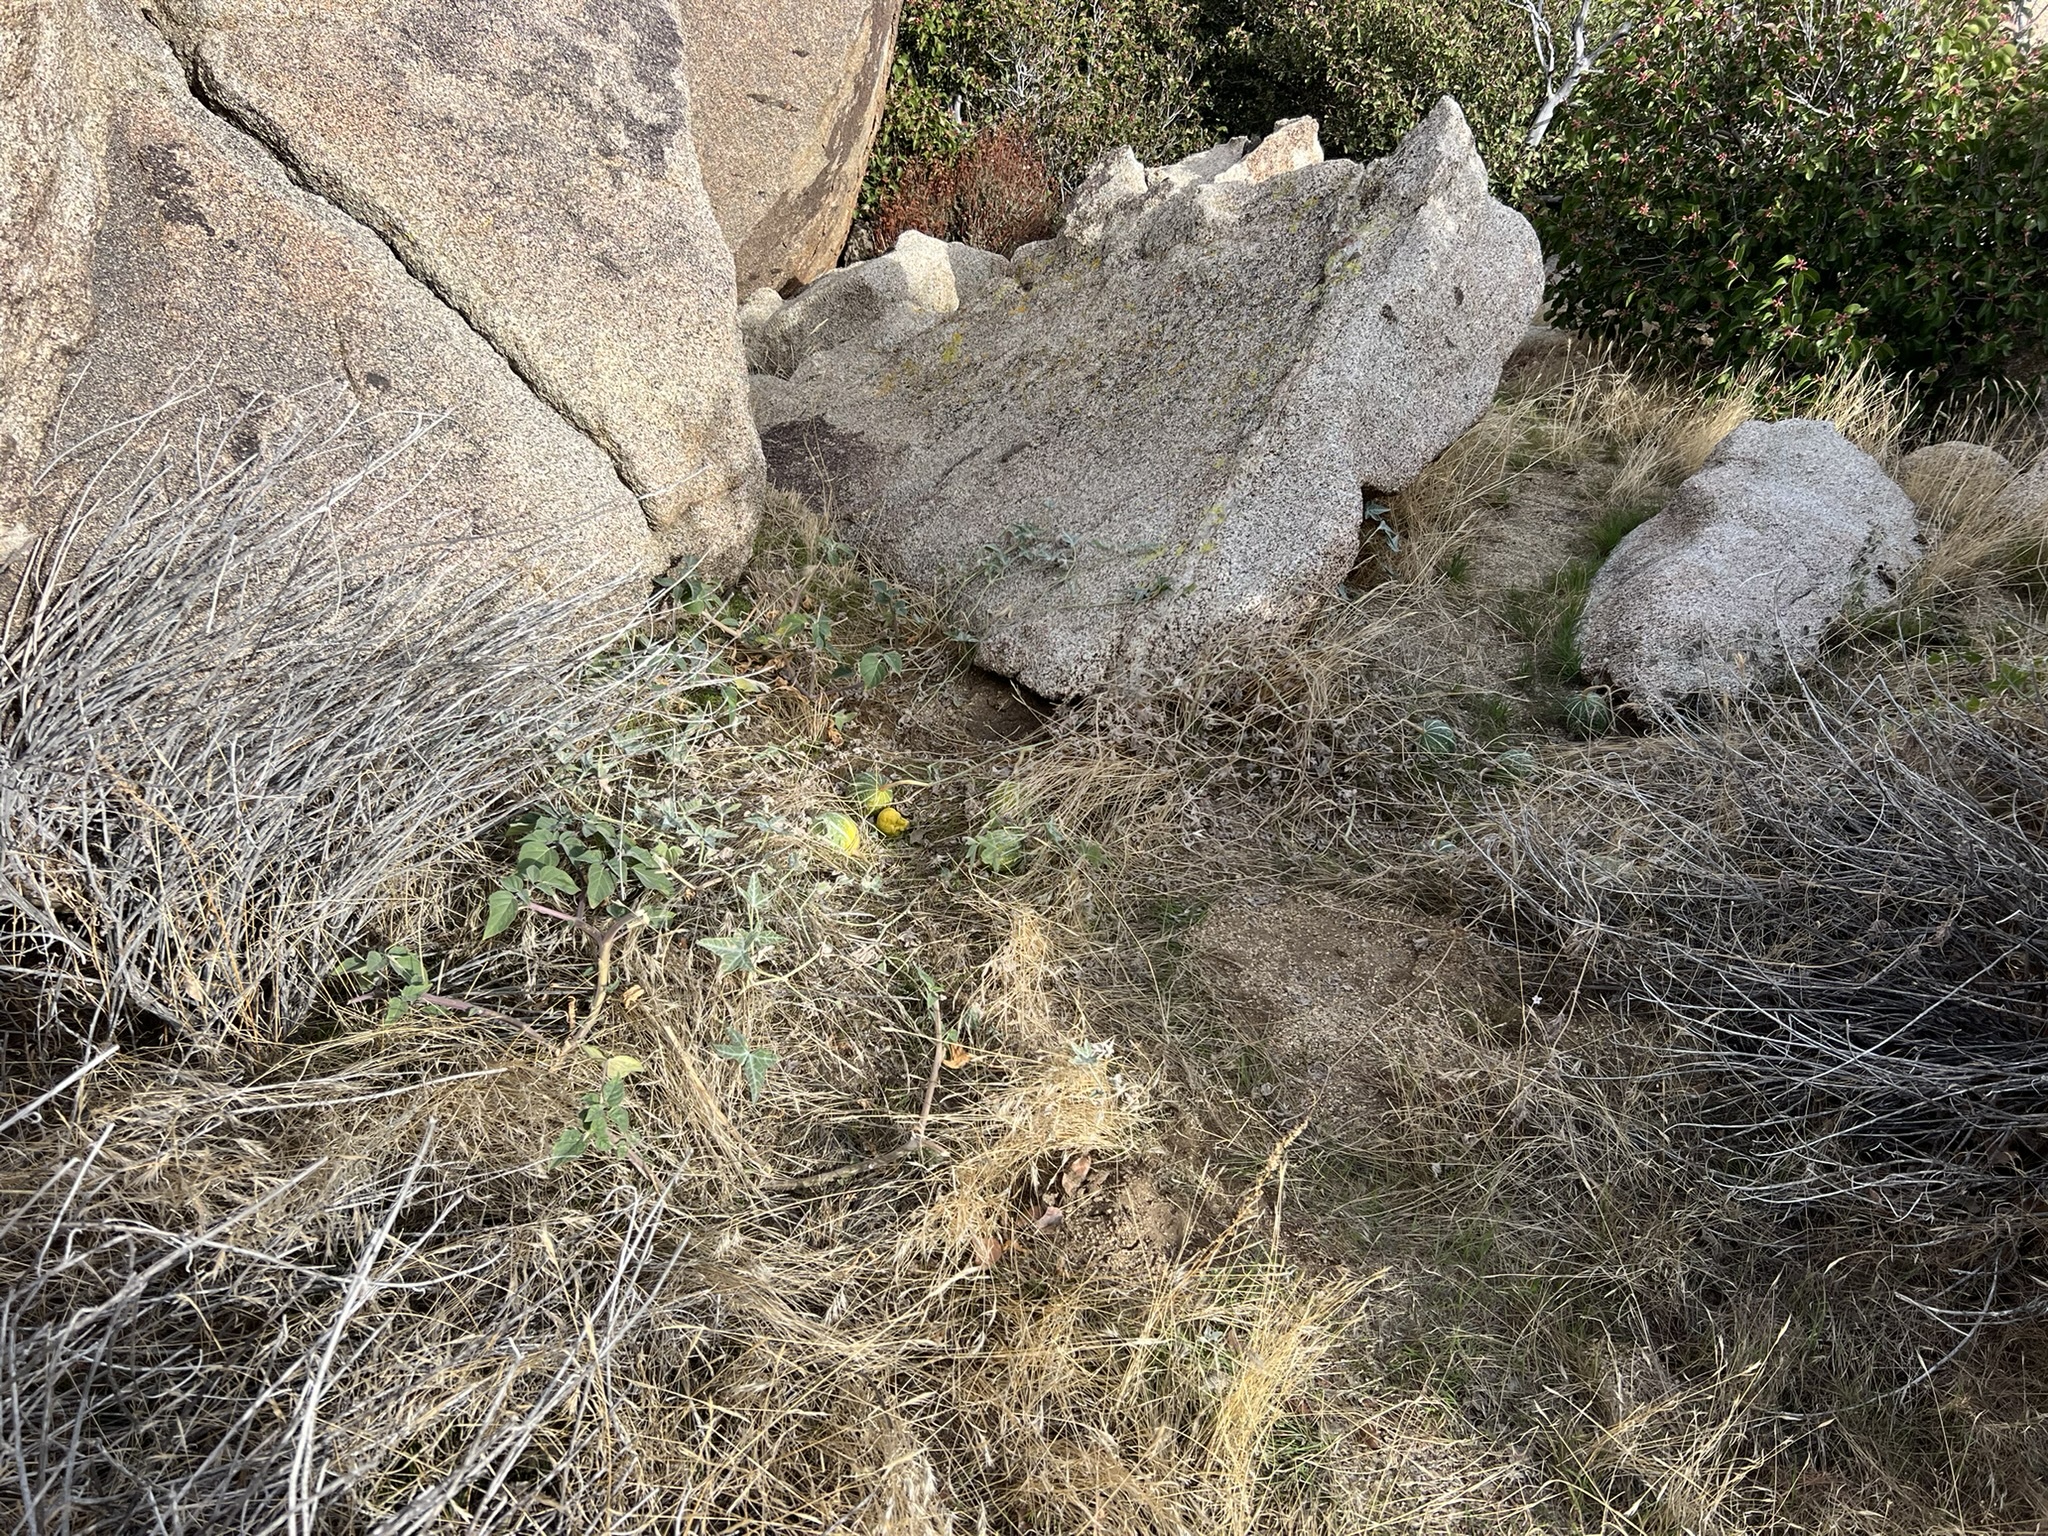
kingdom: Plantae
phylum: Tracheophyta
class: Magnoliopsida
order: Cucurbitales
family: Cucurbitaceae
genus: Cucurbita
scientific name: Cucurbita palmata
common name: Coyote-melon
